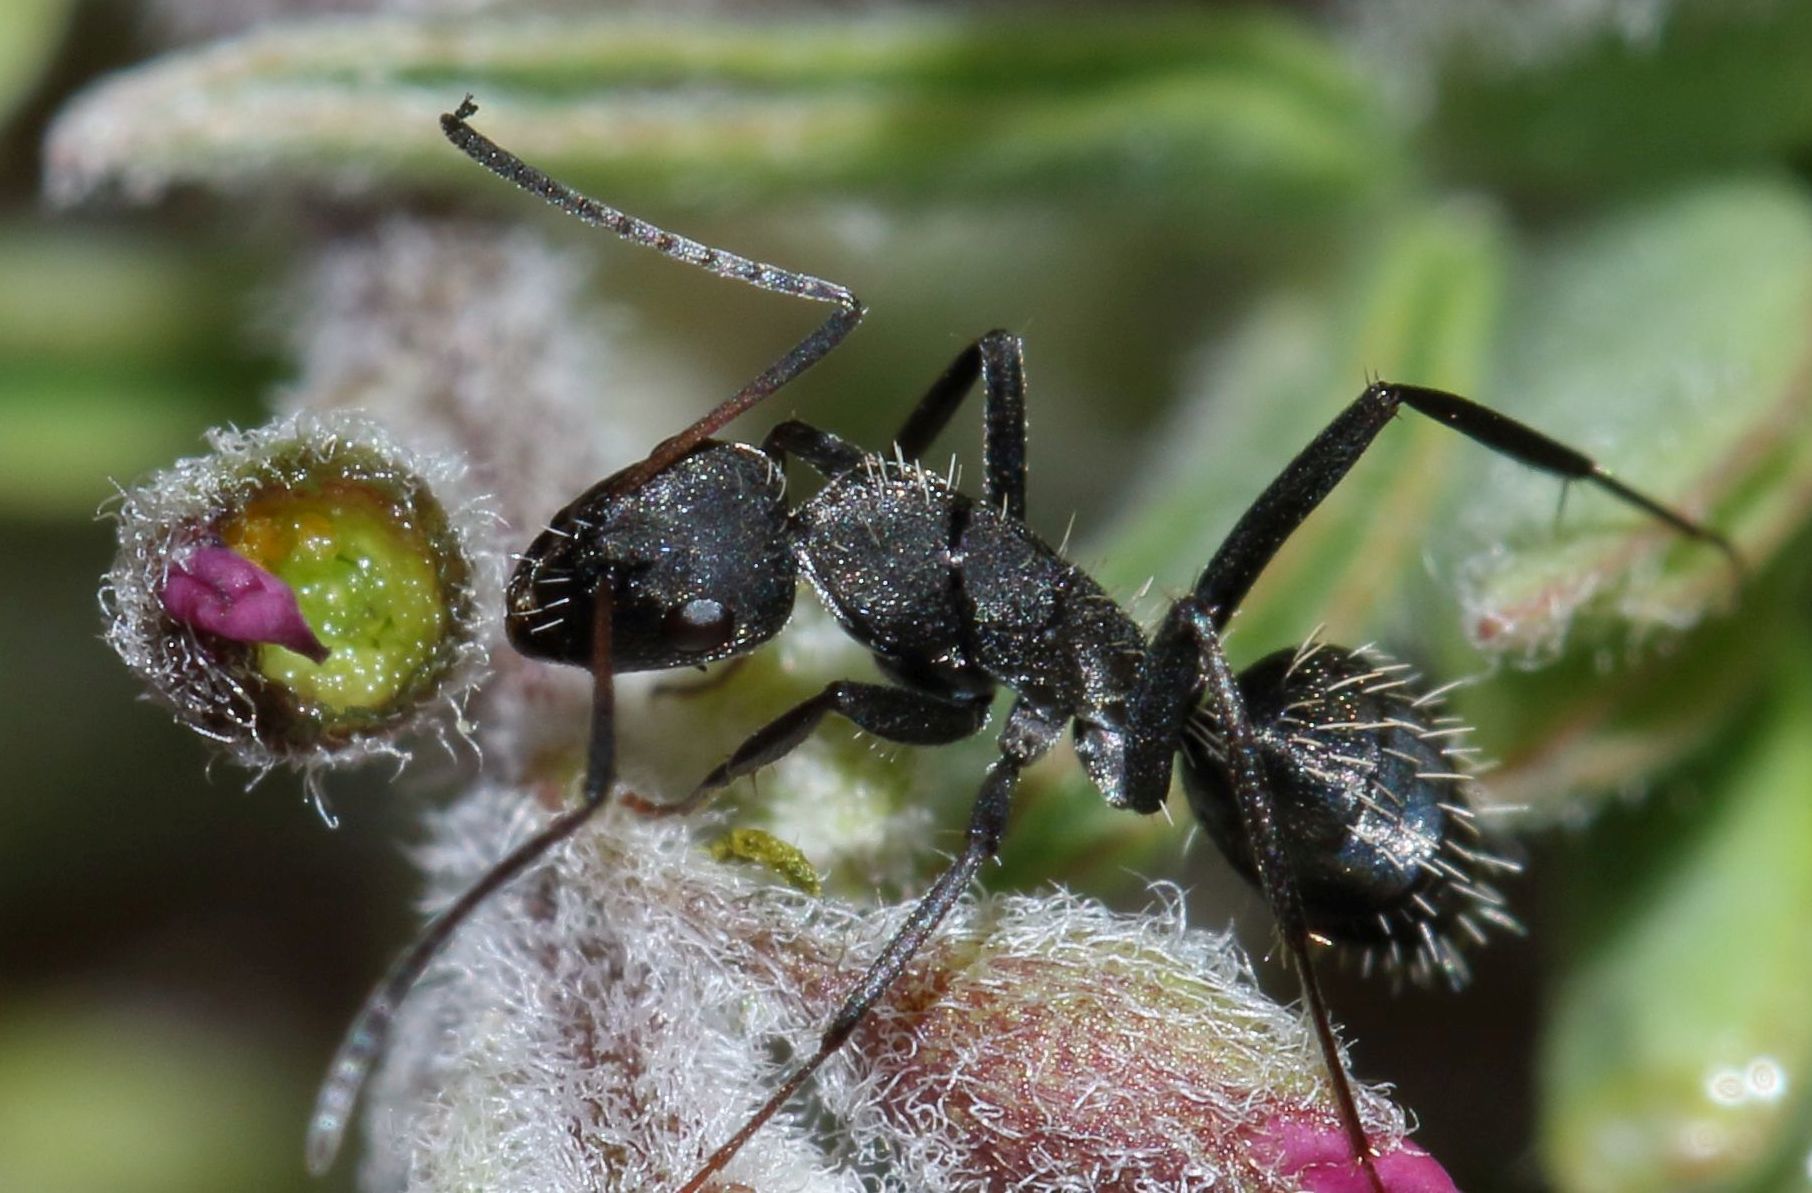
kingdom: Animalia
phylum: Arthropoda
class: Insecta
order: Hymenoptera
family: Formicidae
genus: Camponotus
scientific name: Camponotus niveosetosus
